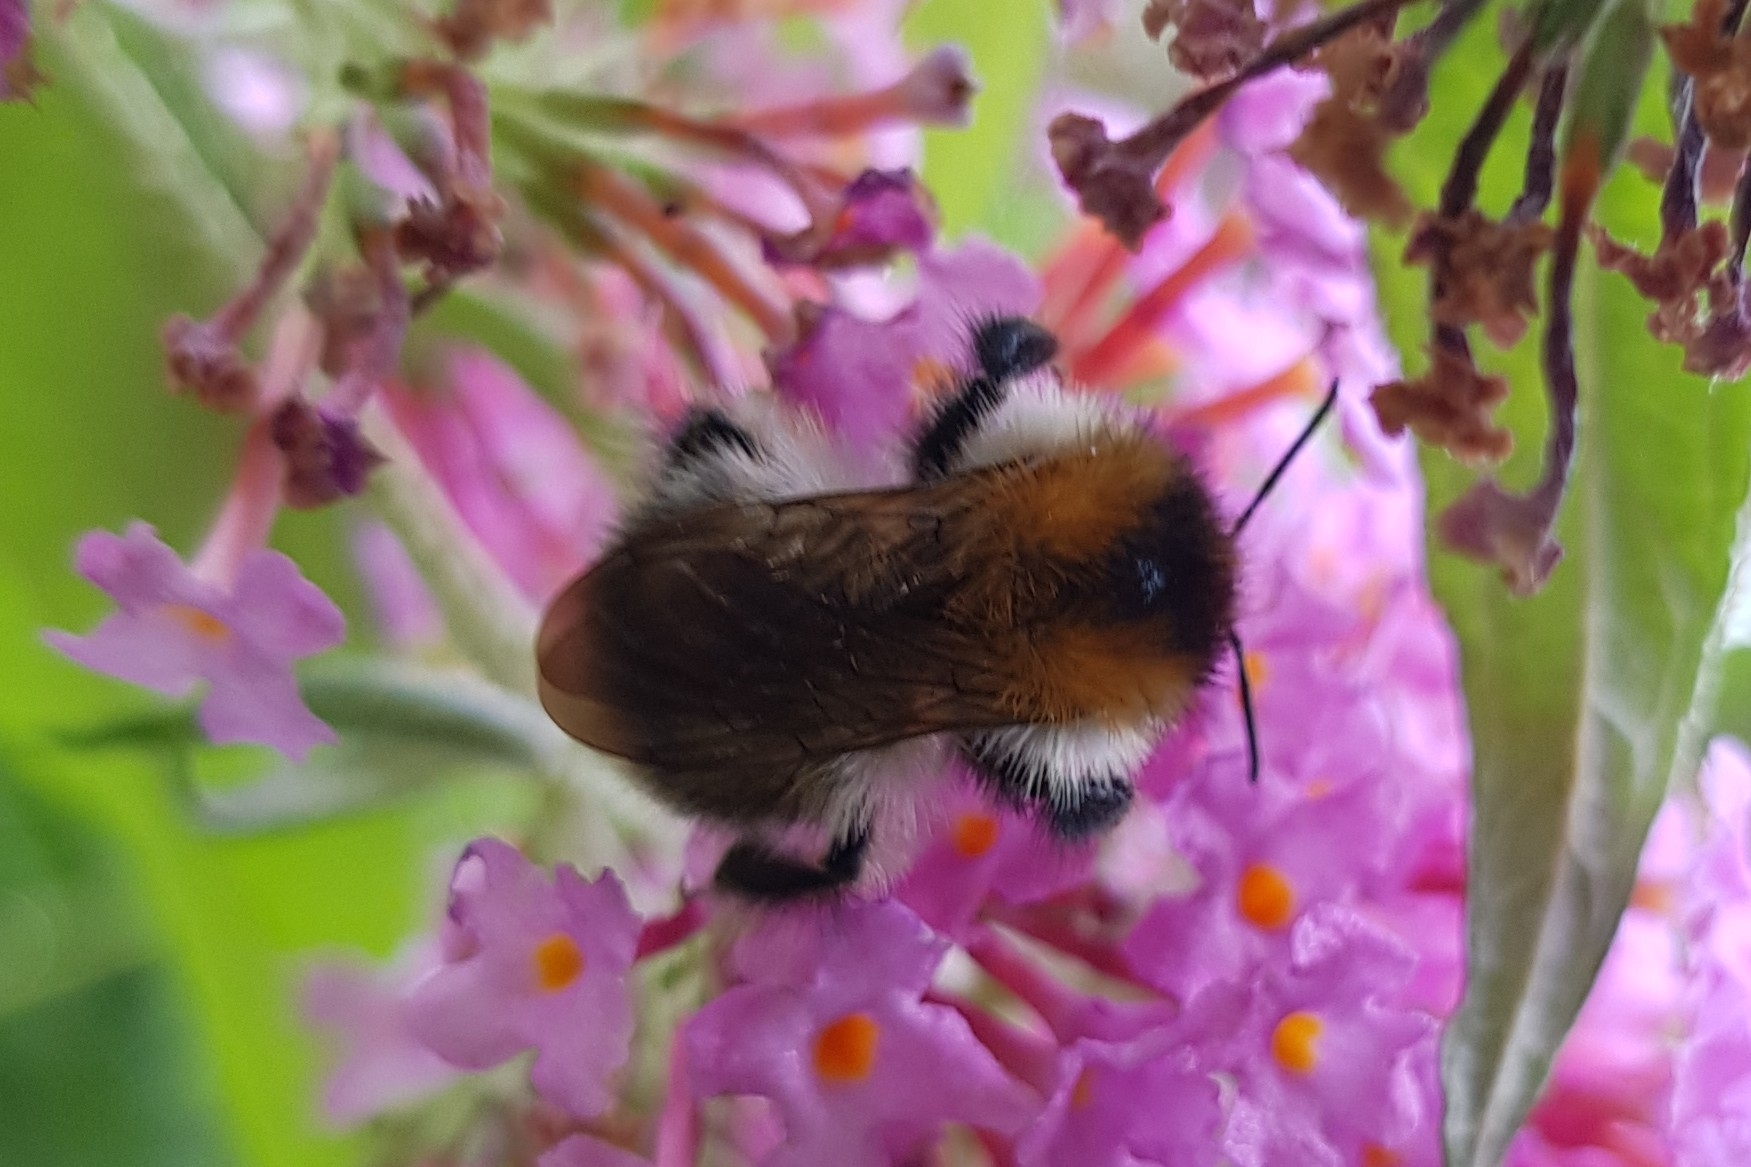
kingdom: Animalia
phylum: Arthropoda
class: Insecta
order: Hymenoptera
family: Apidae
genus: Bombus
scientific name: Bombus pascuorum
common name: Common carder bee
